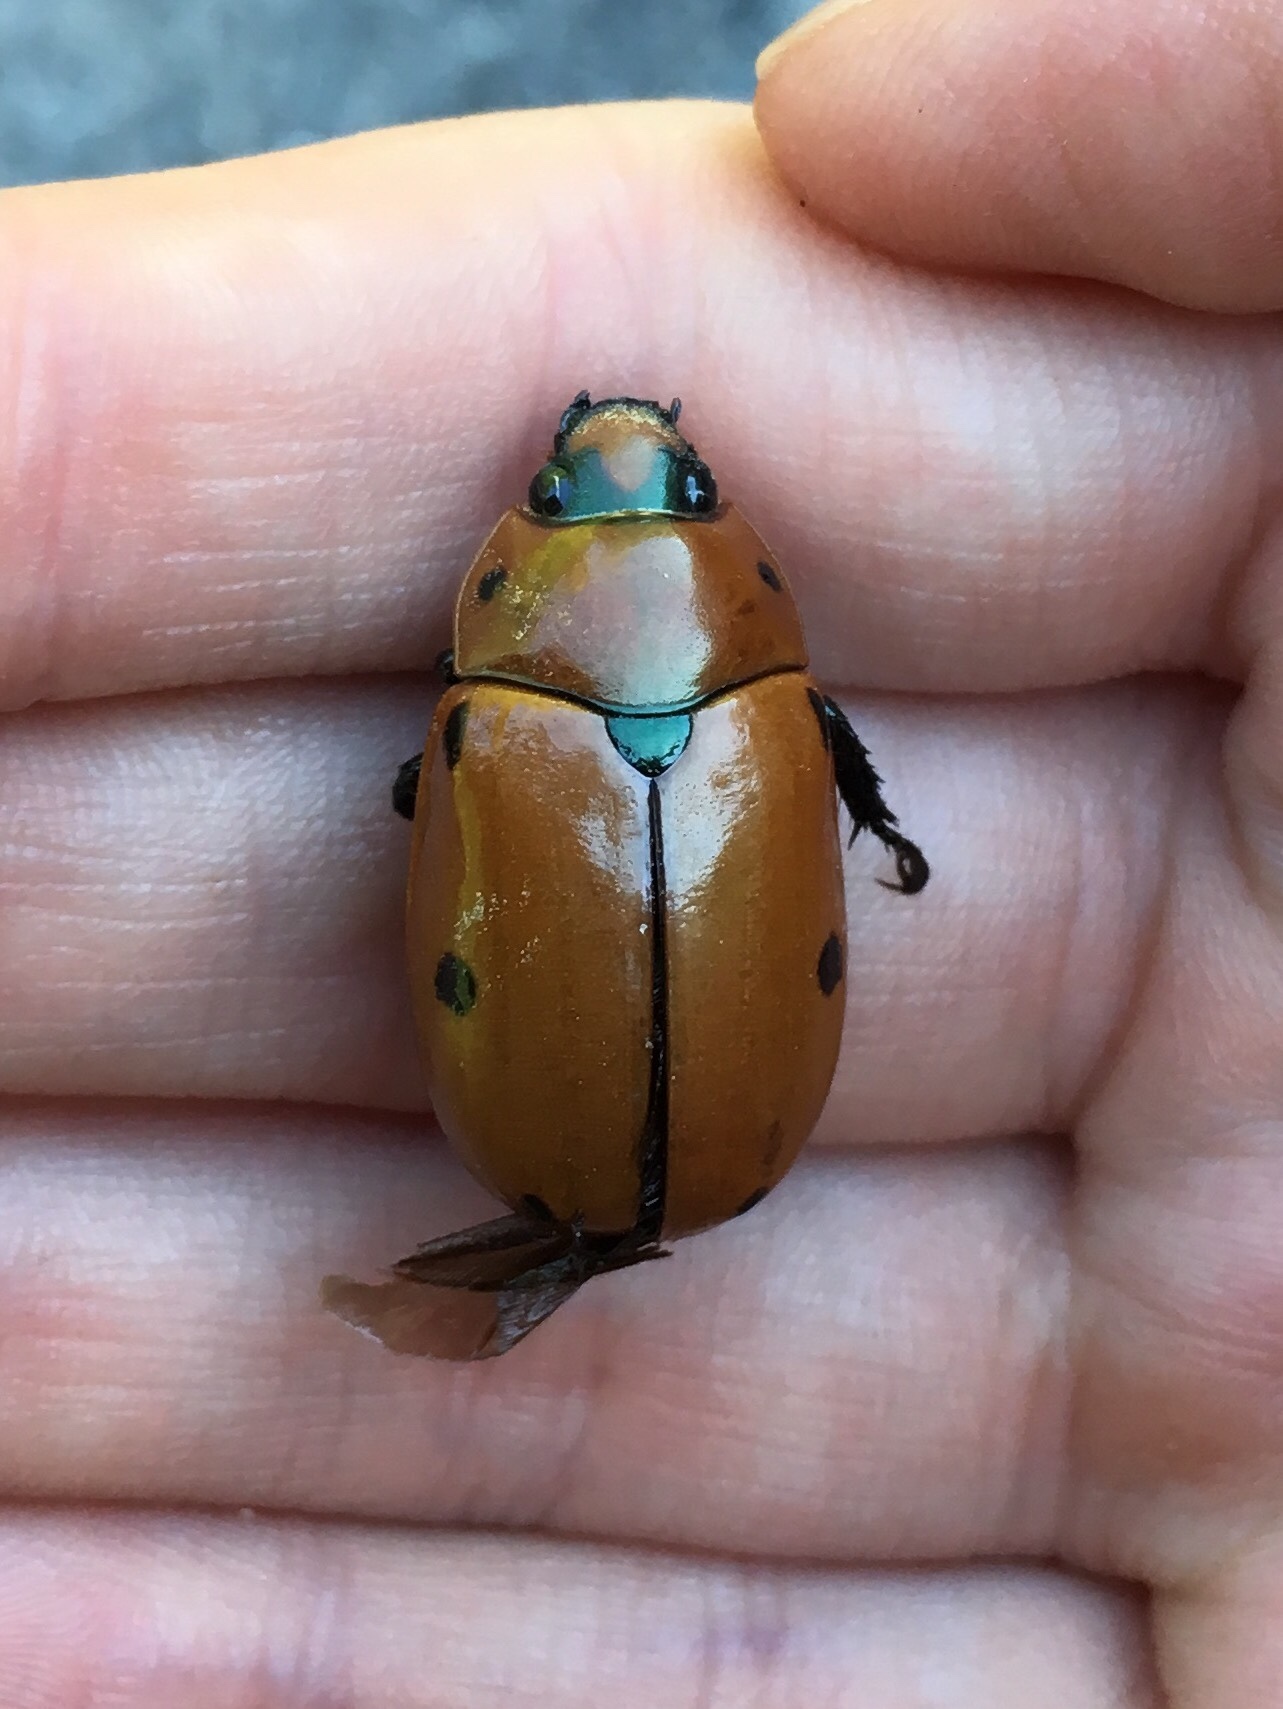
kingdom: Animalia
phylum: Arthropoda
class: Insecta
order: Coleoptera
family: Scarabaeidae
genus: Pelidnota
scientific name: Pelidnota punctata
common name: Grapevine beetle
